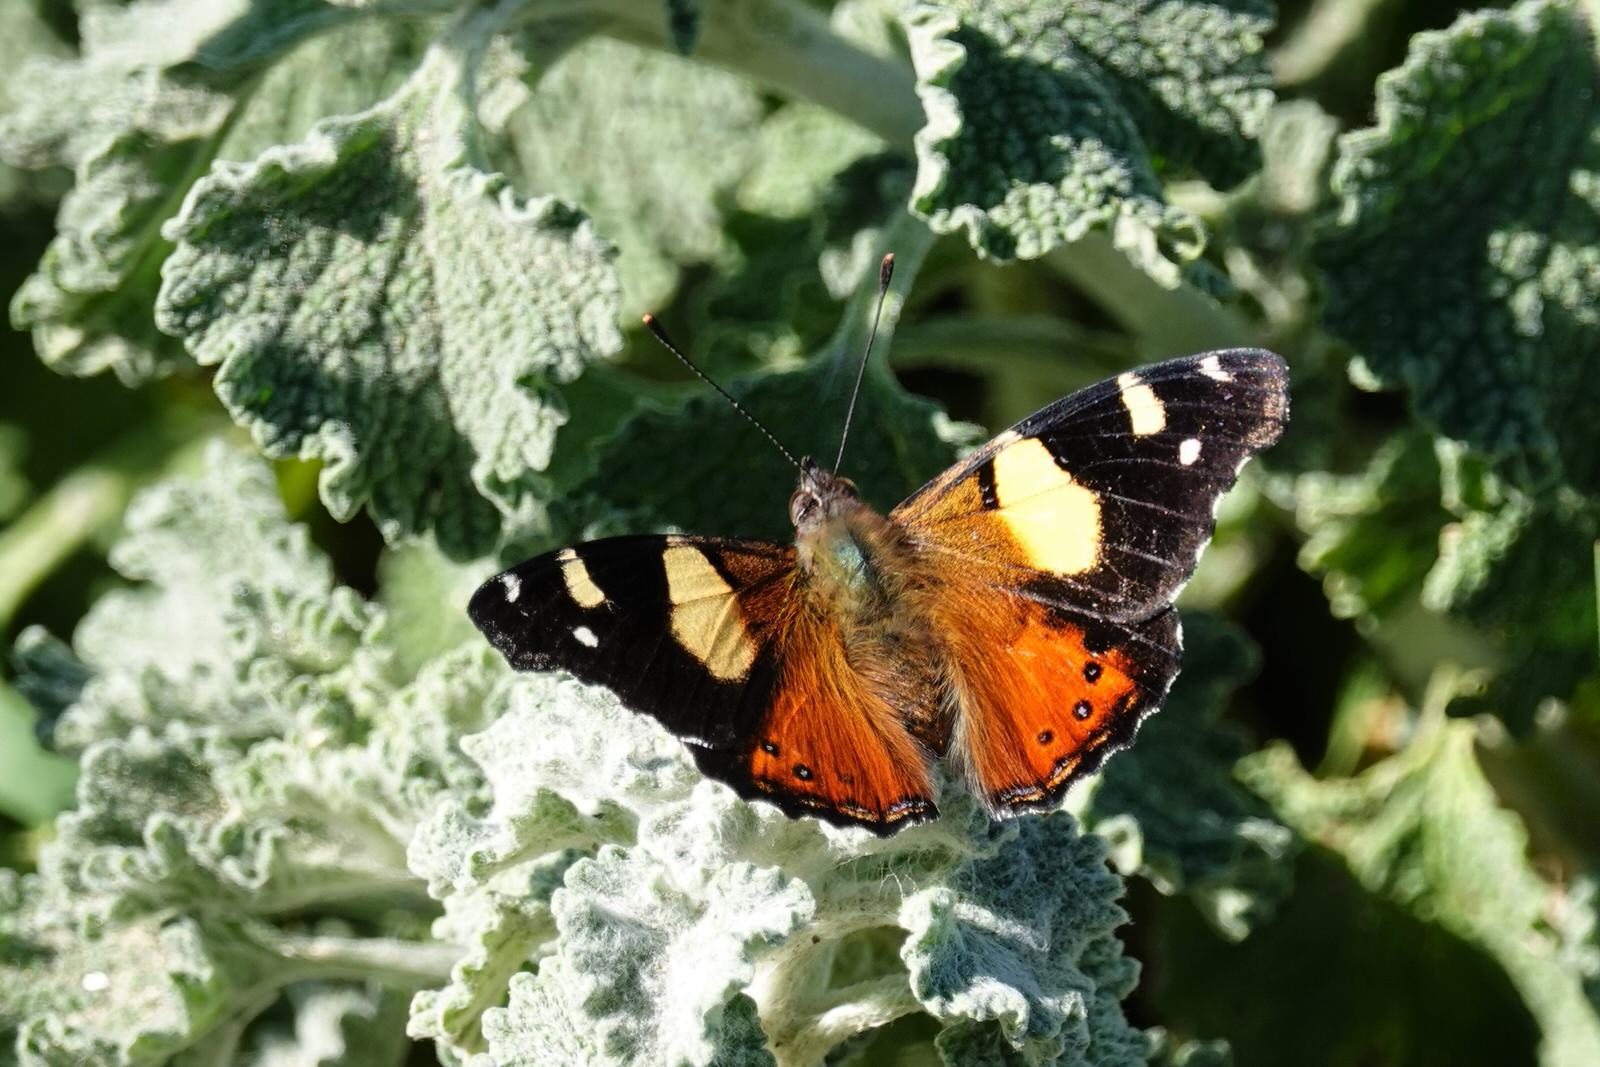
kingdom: Animalia
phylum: Arthropoda
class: Insecta
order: Lepidoptera
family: Nymphalidae
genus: Vanessa
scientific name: Vanessa itea
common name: Yellow admiral
